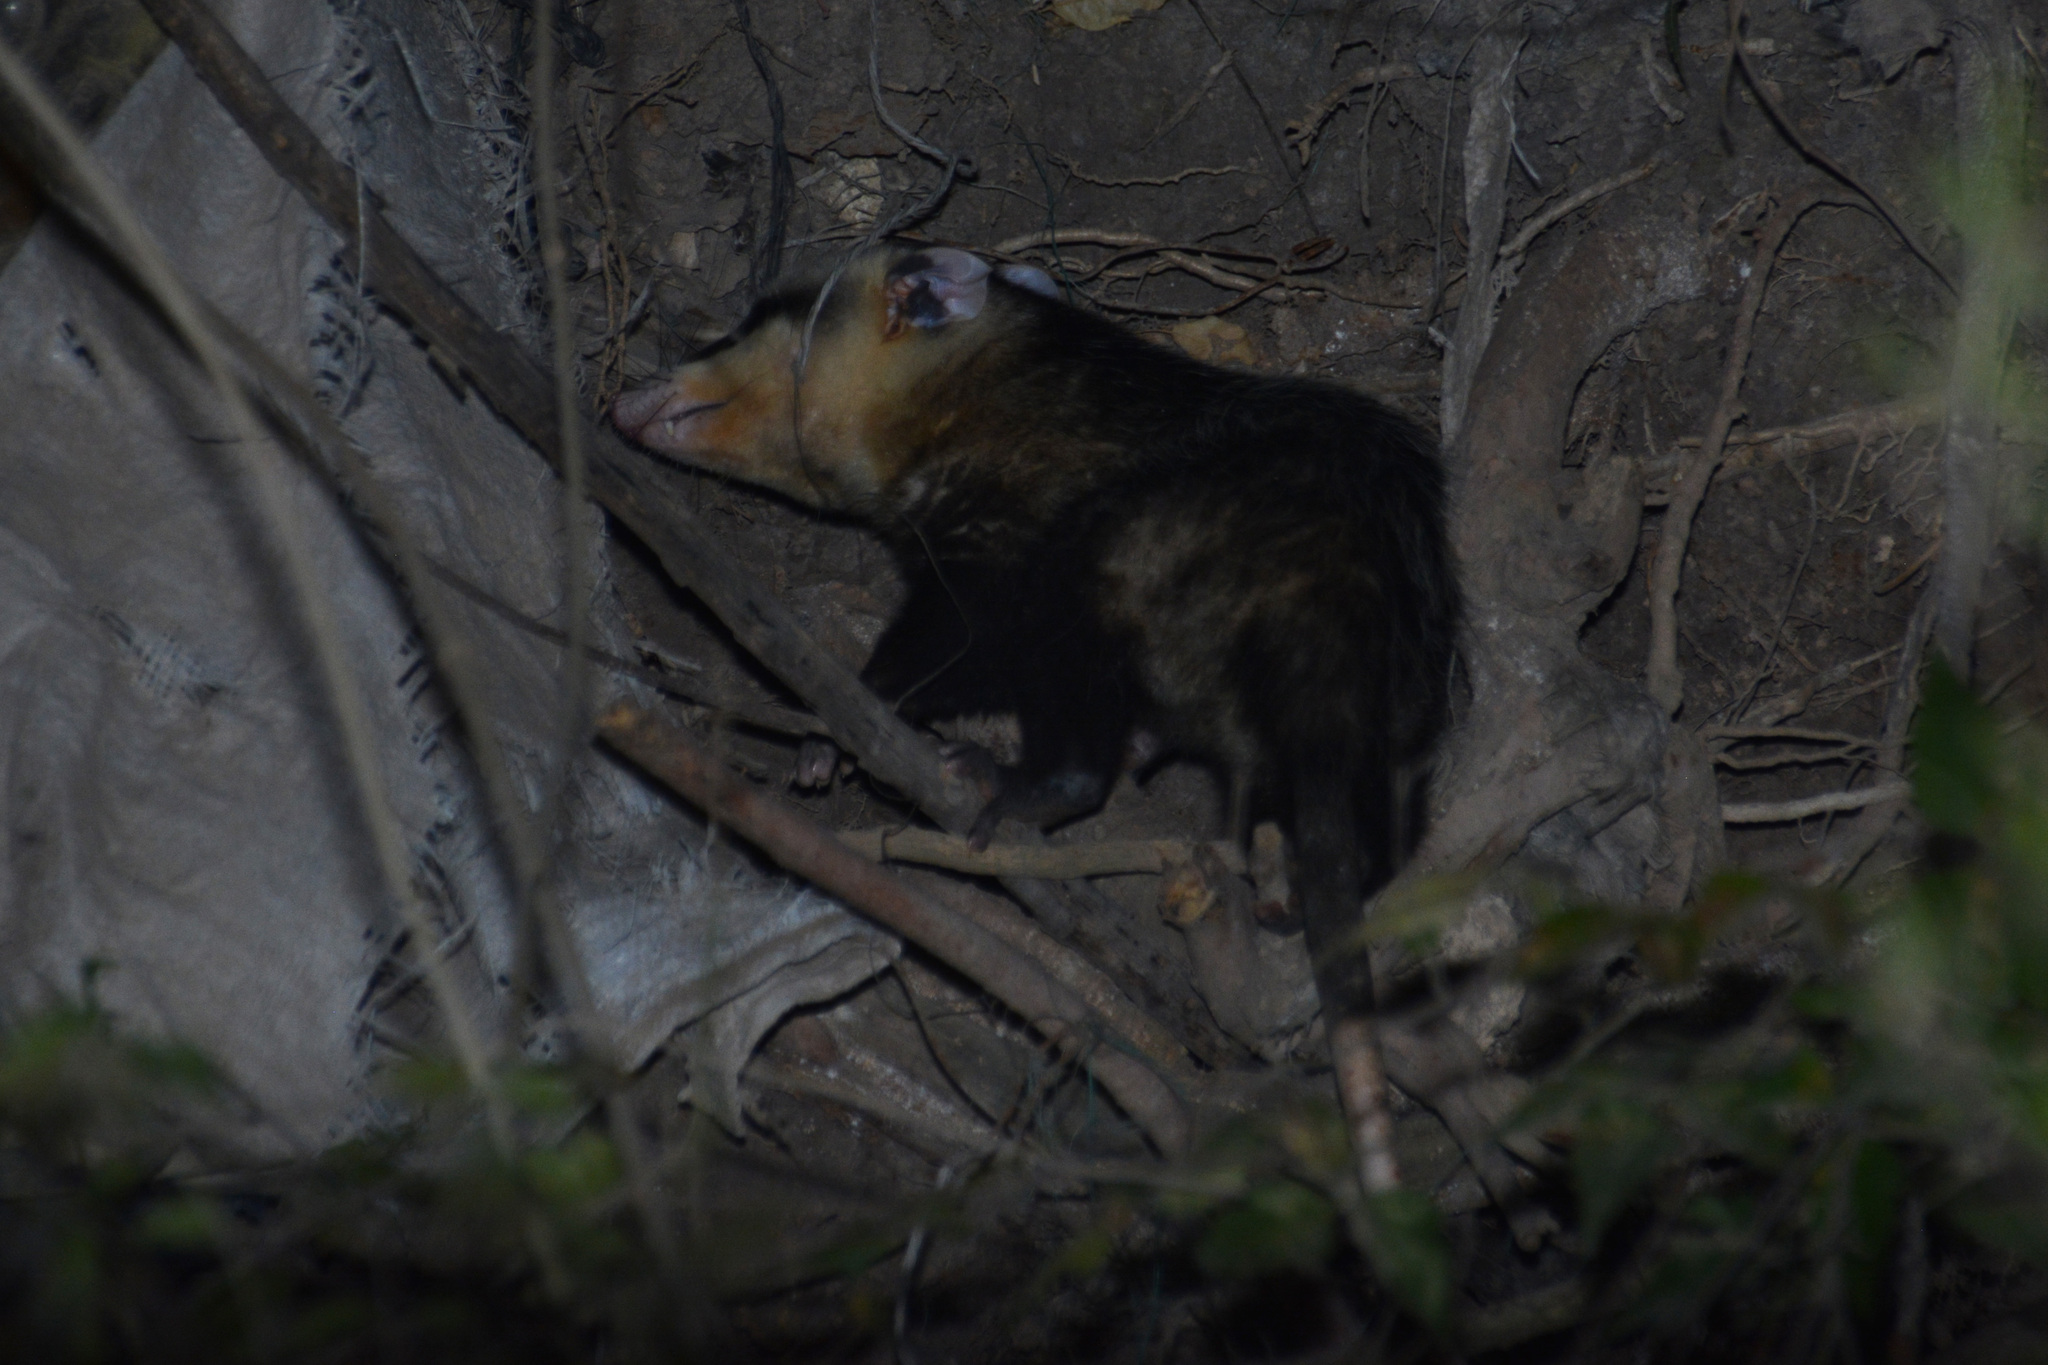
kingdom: Animalia
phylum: Chordata
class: Mammalia
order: Didelphimorphia
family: Didelphidae
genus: Didelphis
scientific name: Didelphis albiventris
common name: White-eared opossum
